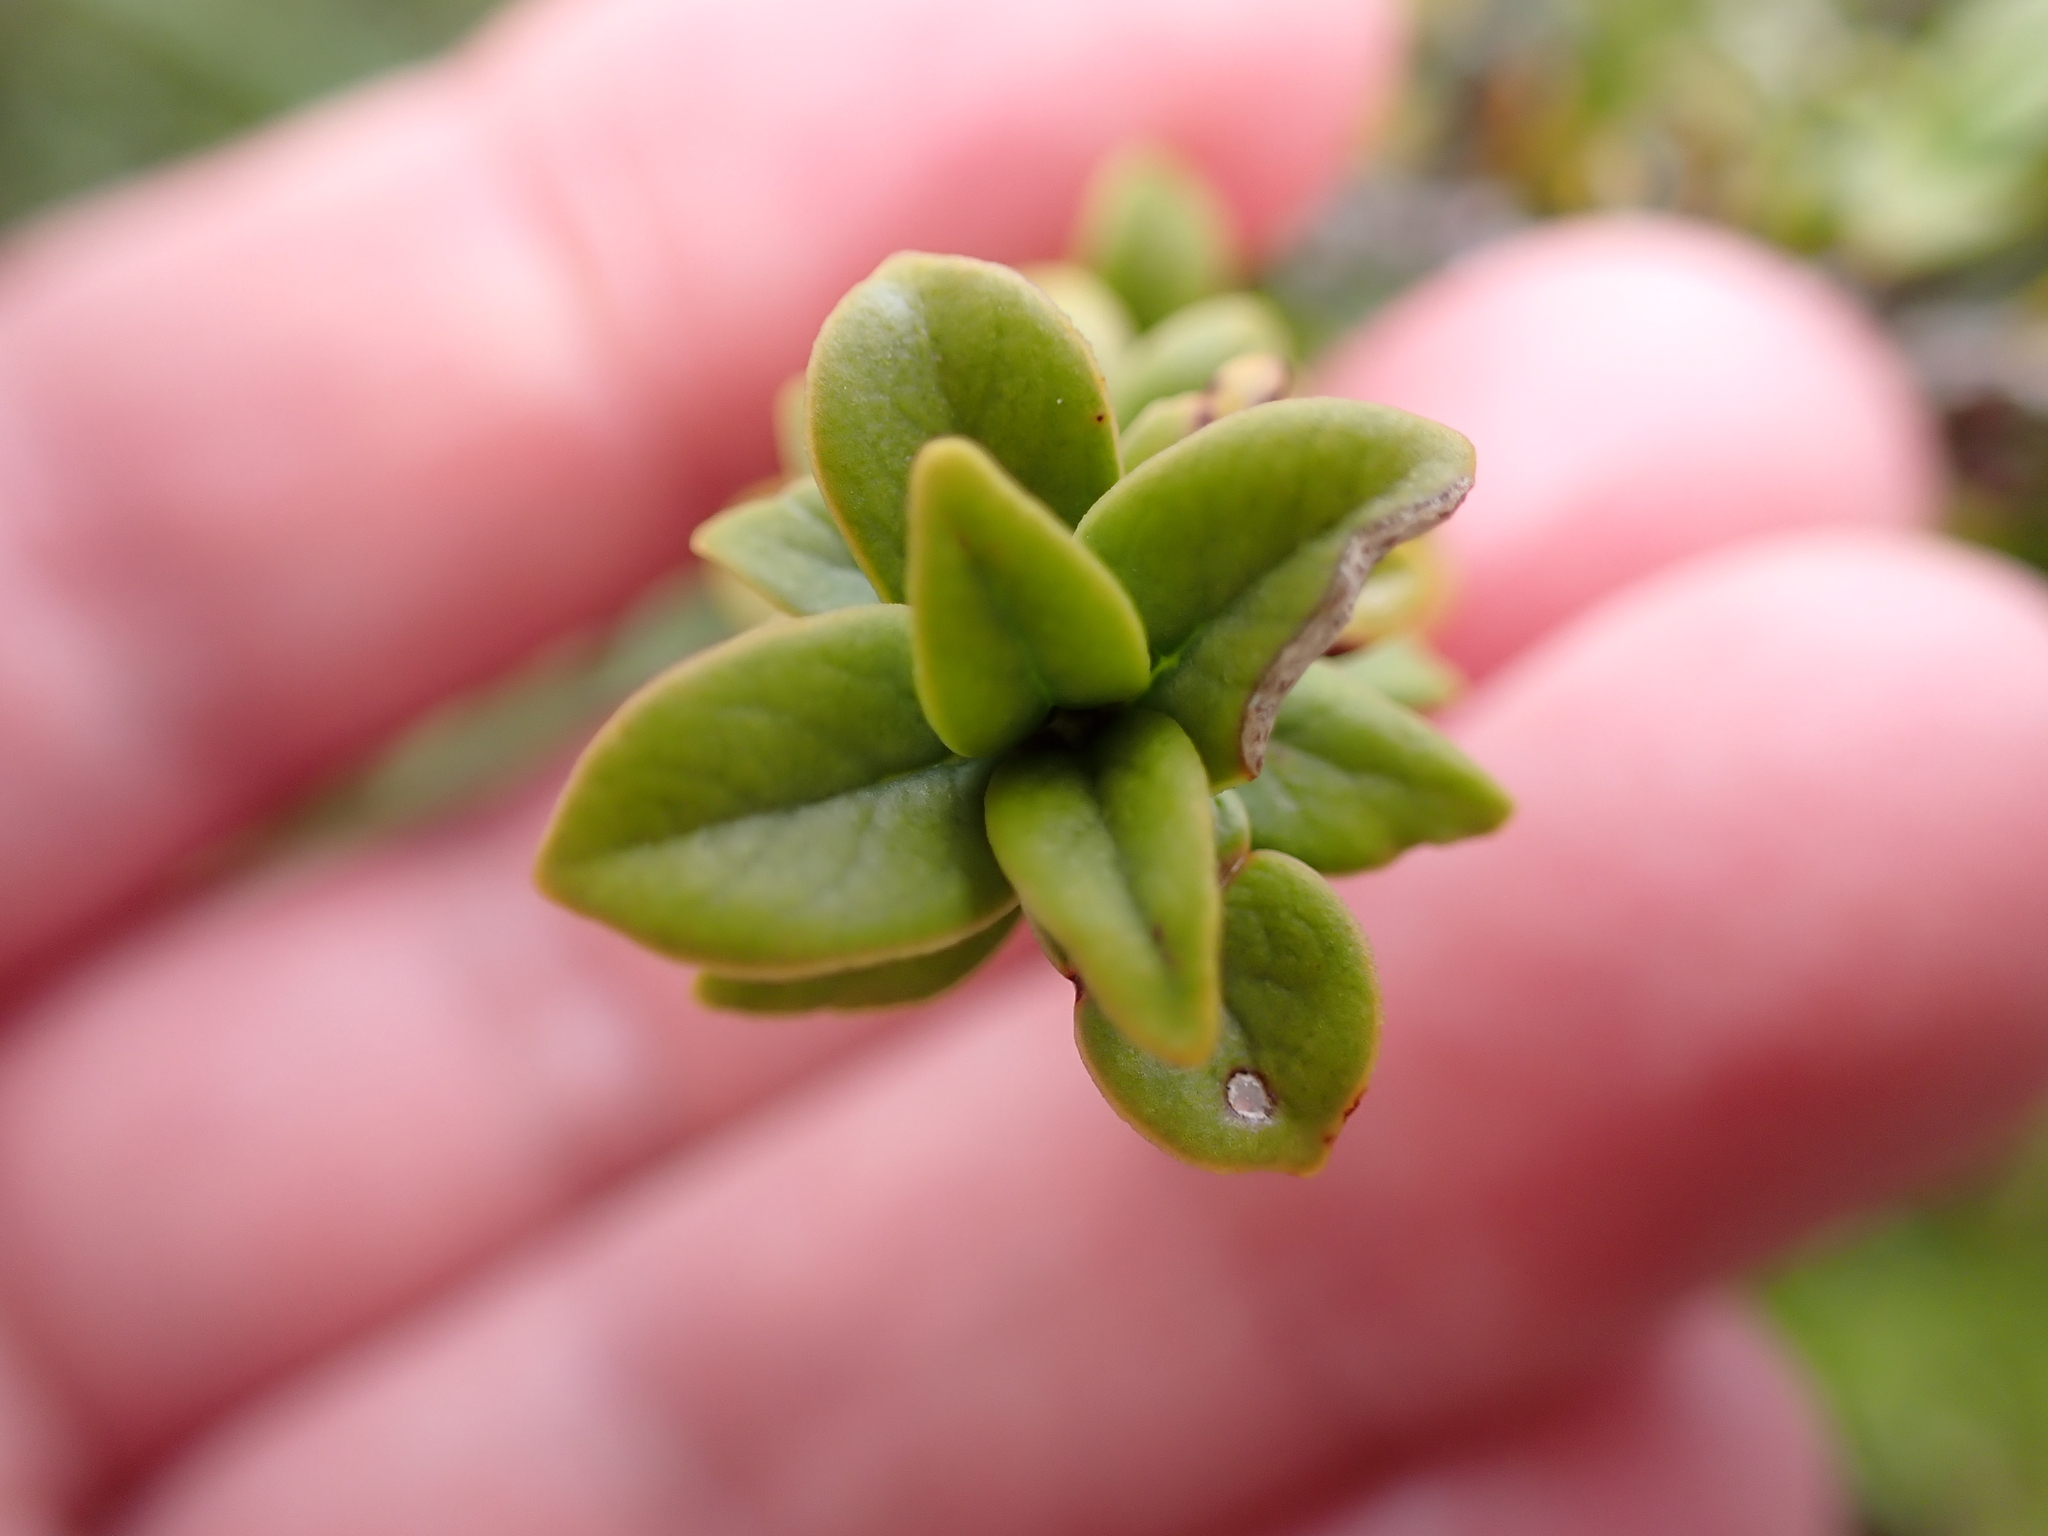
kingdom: Plantae
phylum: Tracheophyta
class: Magnoliopsida
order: Gentianales
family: Rubiaceae
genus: Coprosma
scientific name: Coprosma pseudocuneata
